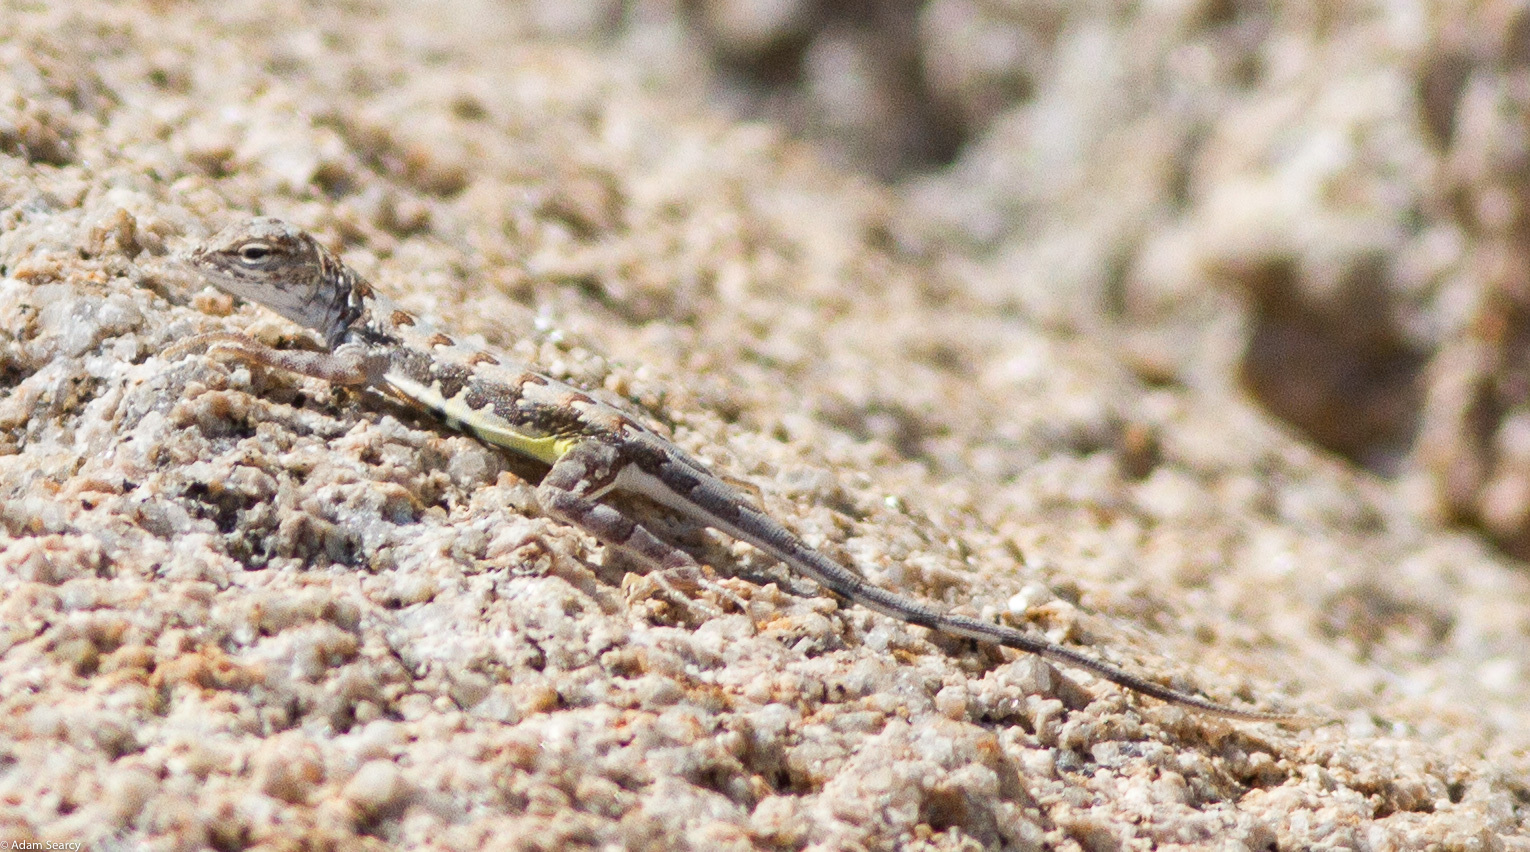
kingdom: Animalia
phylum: Chordata
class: Squamata
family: Phrynosomatidae
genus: Callisaurus
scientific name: Callisaurus draconoides
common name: Zebra-tailed lizard
